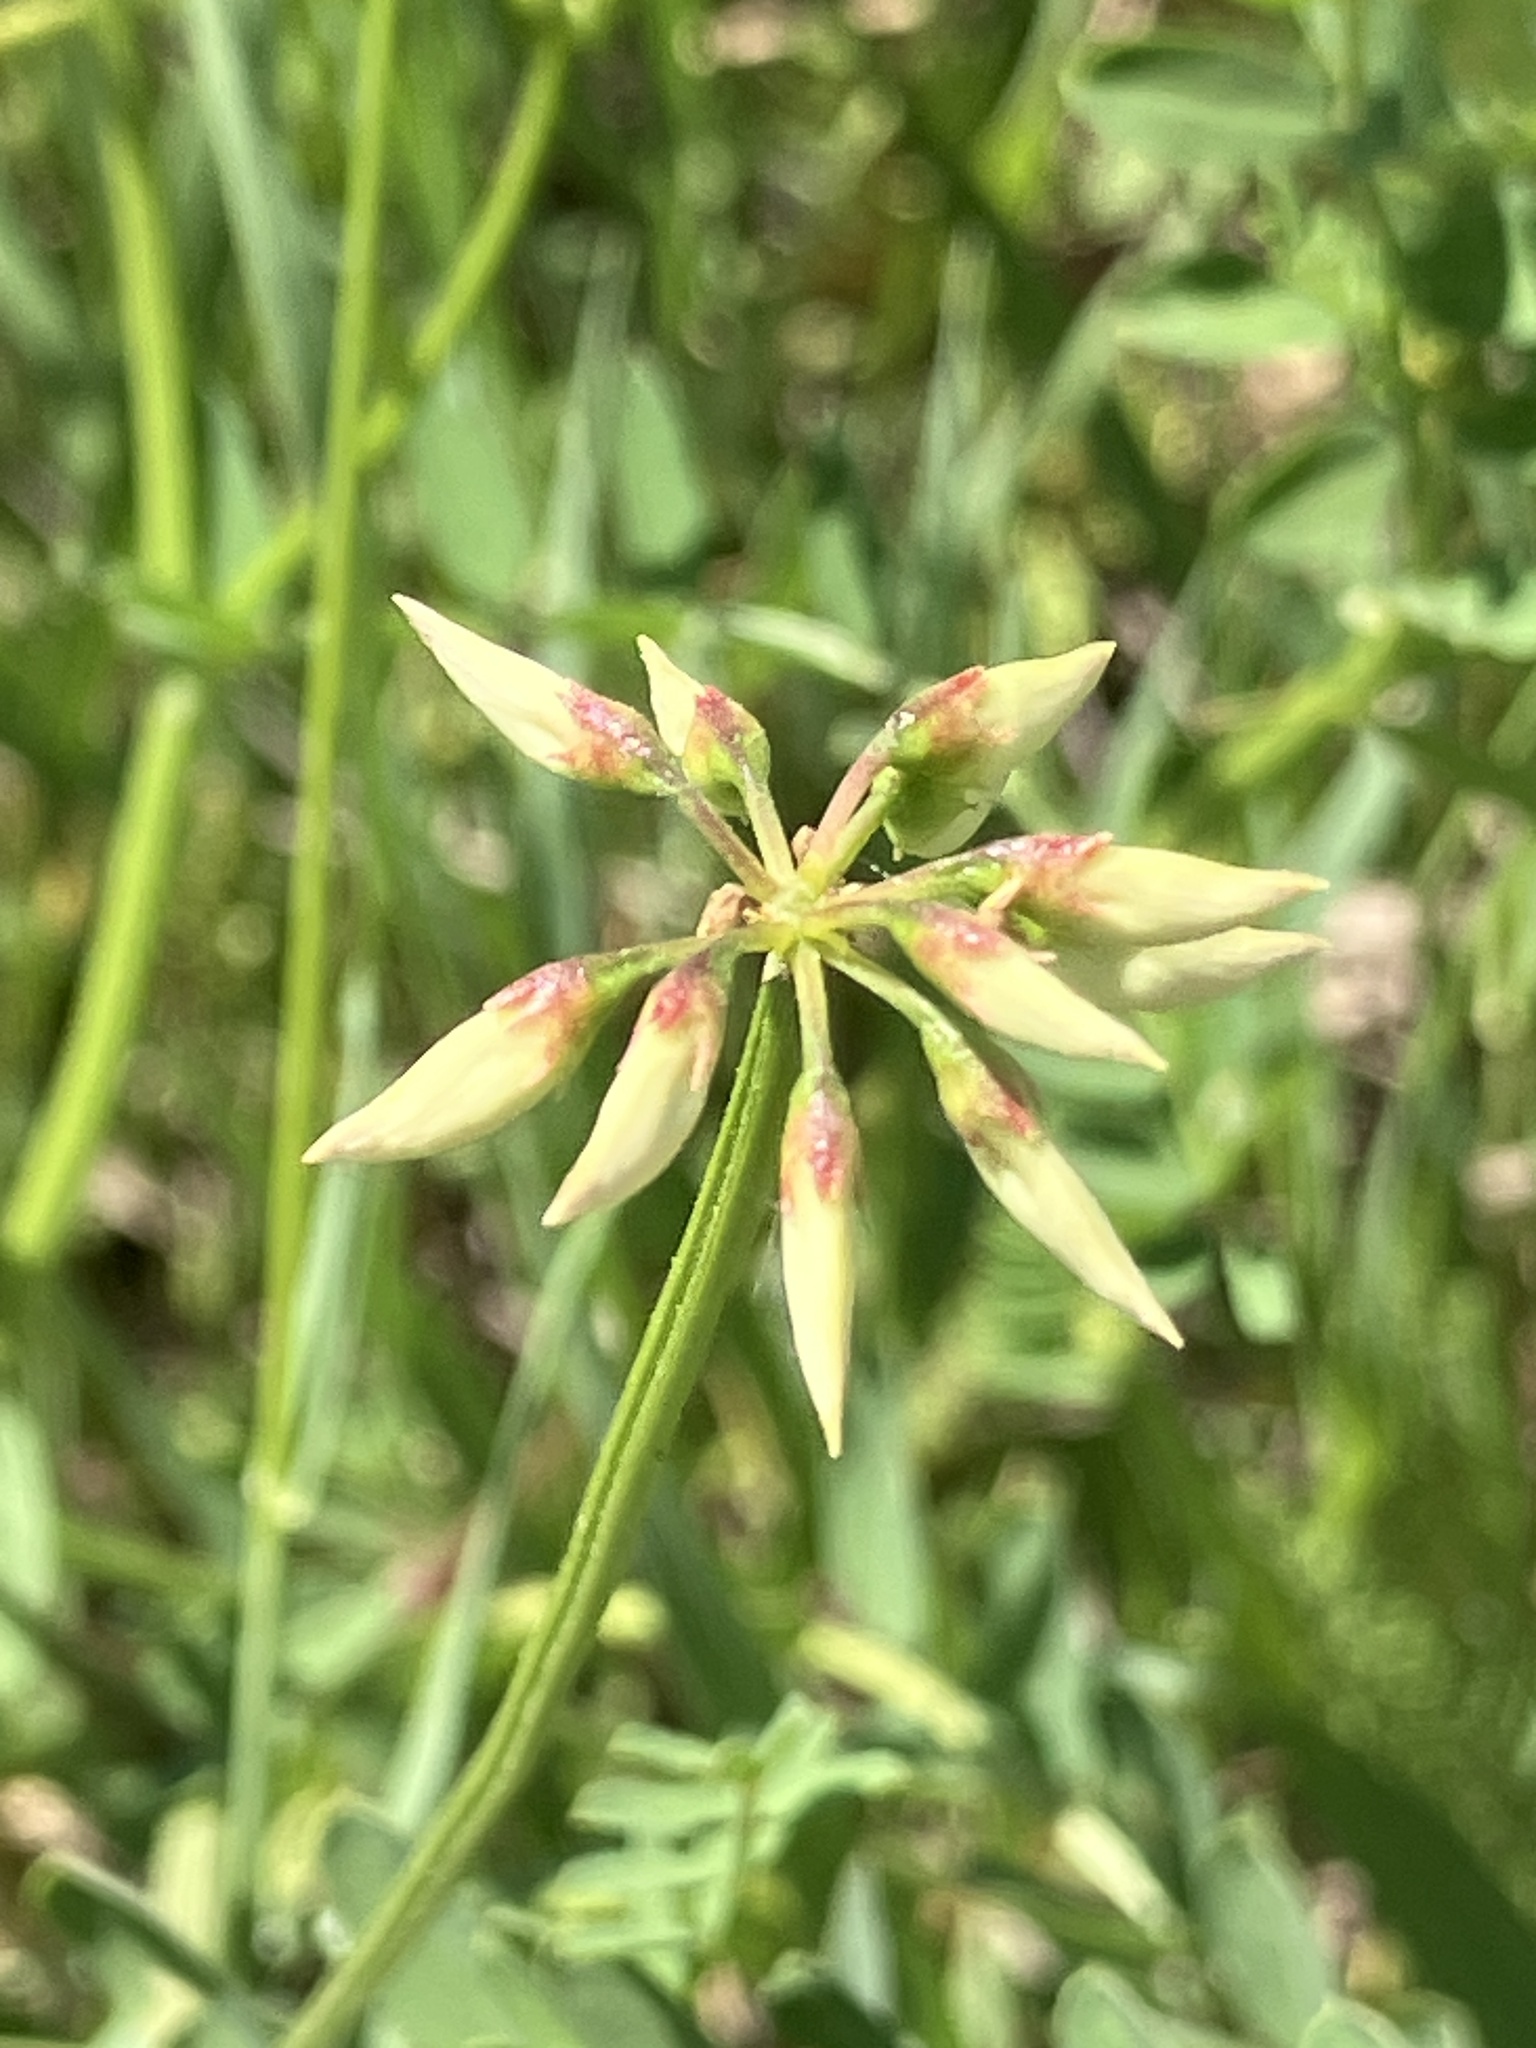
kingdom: Plantae
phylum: Tracheophyta
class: Magnoliopsida
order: Fabales
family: Fabaceae
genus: Coronilla
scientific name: Coronilla varia
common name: Crownvetch
